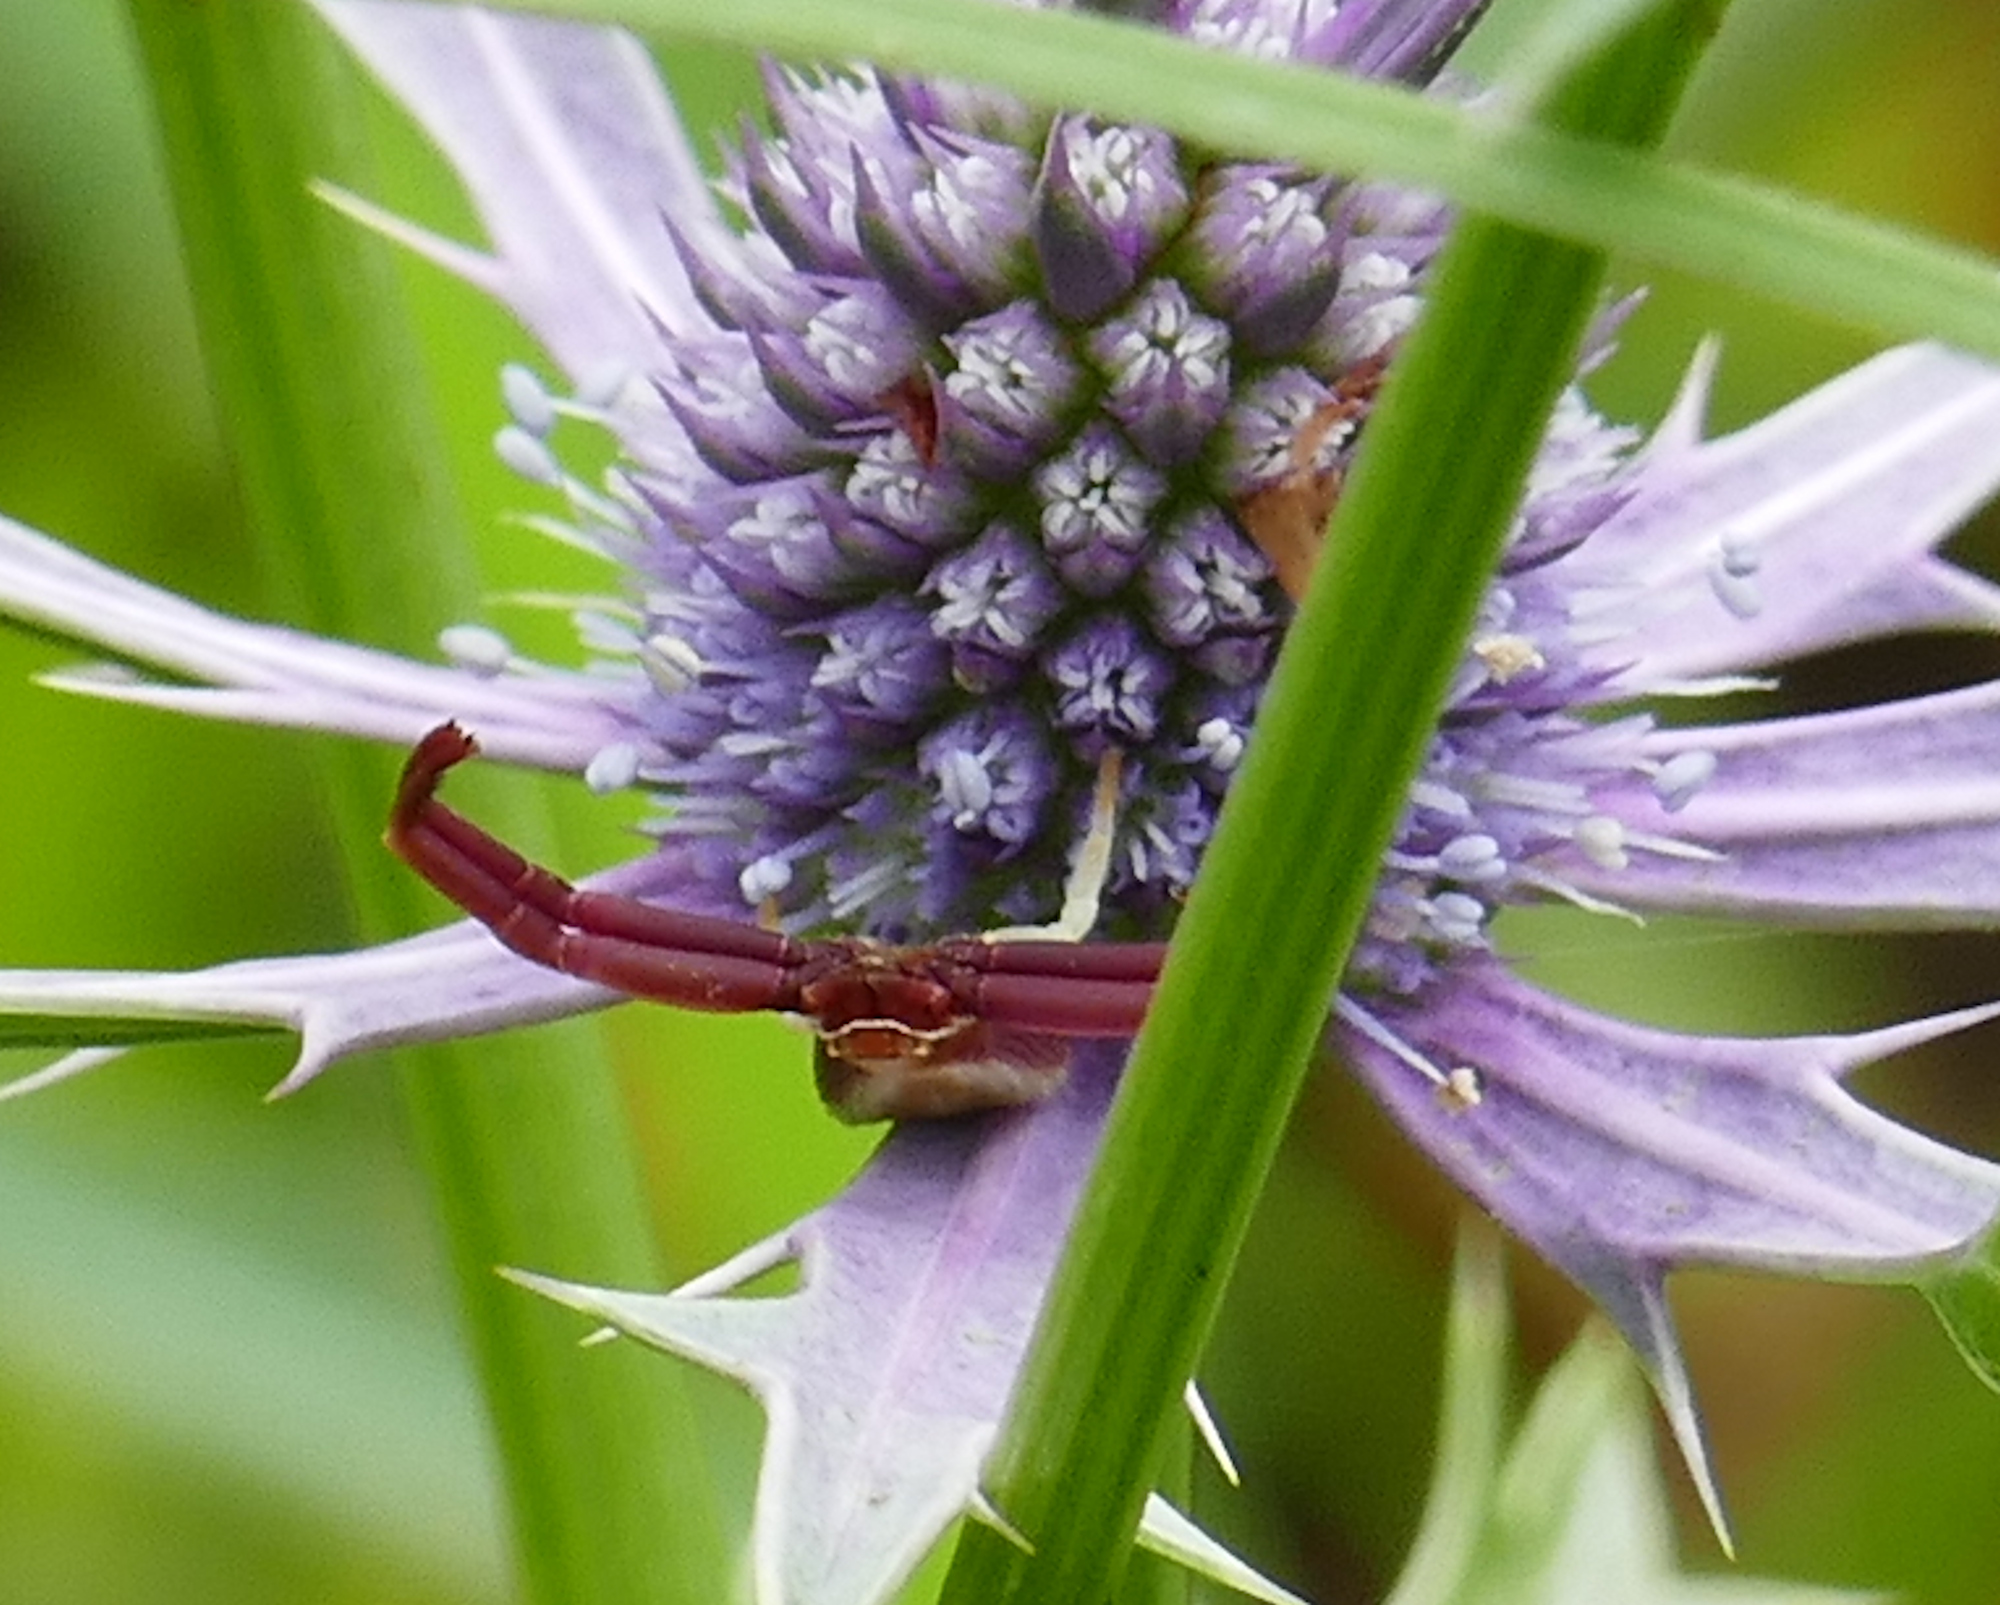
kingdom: Animalia
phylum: Arthropoda
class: Arachnida
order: Araneae
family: Thomisidae
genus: Misumenoides
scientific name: Misumenoides formosipes
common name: White-banded crab spider
